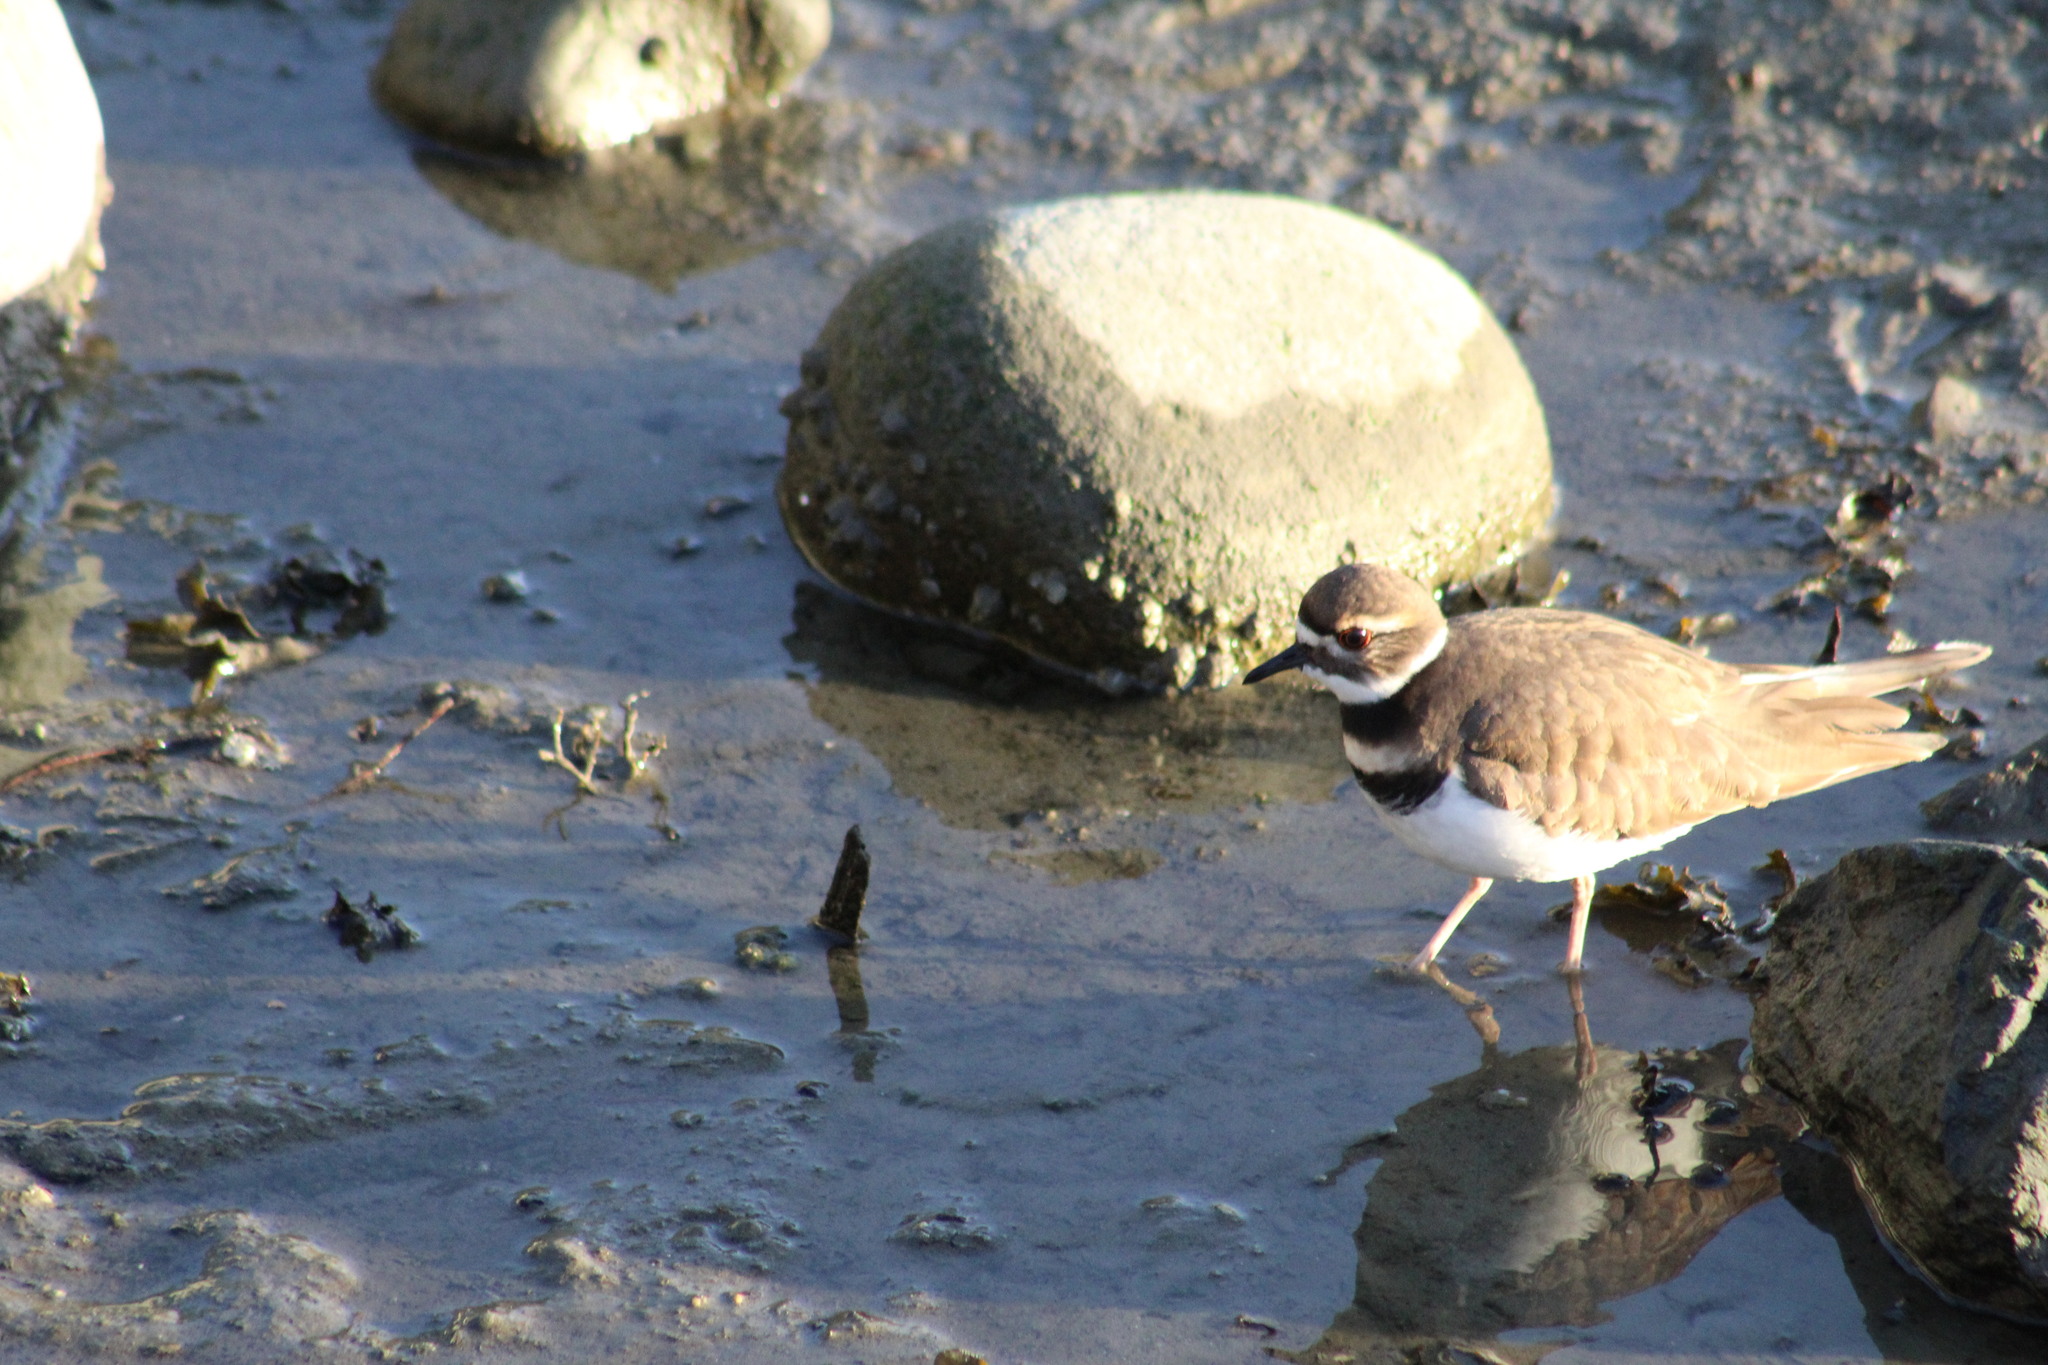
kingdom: Animalia
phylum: Chordata
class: Aves
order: Charadriiformes
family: Charadriidae
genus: Charadrius
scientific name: Charadrius vociferus
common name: Killdeer
